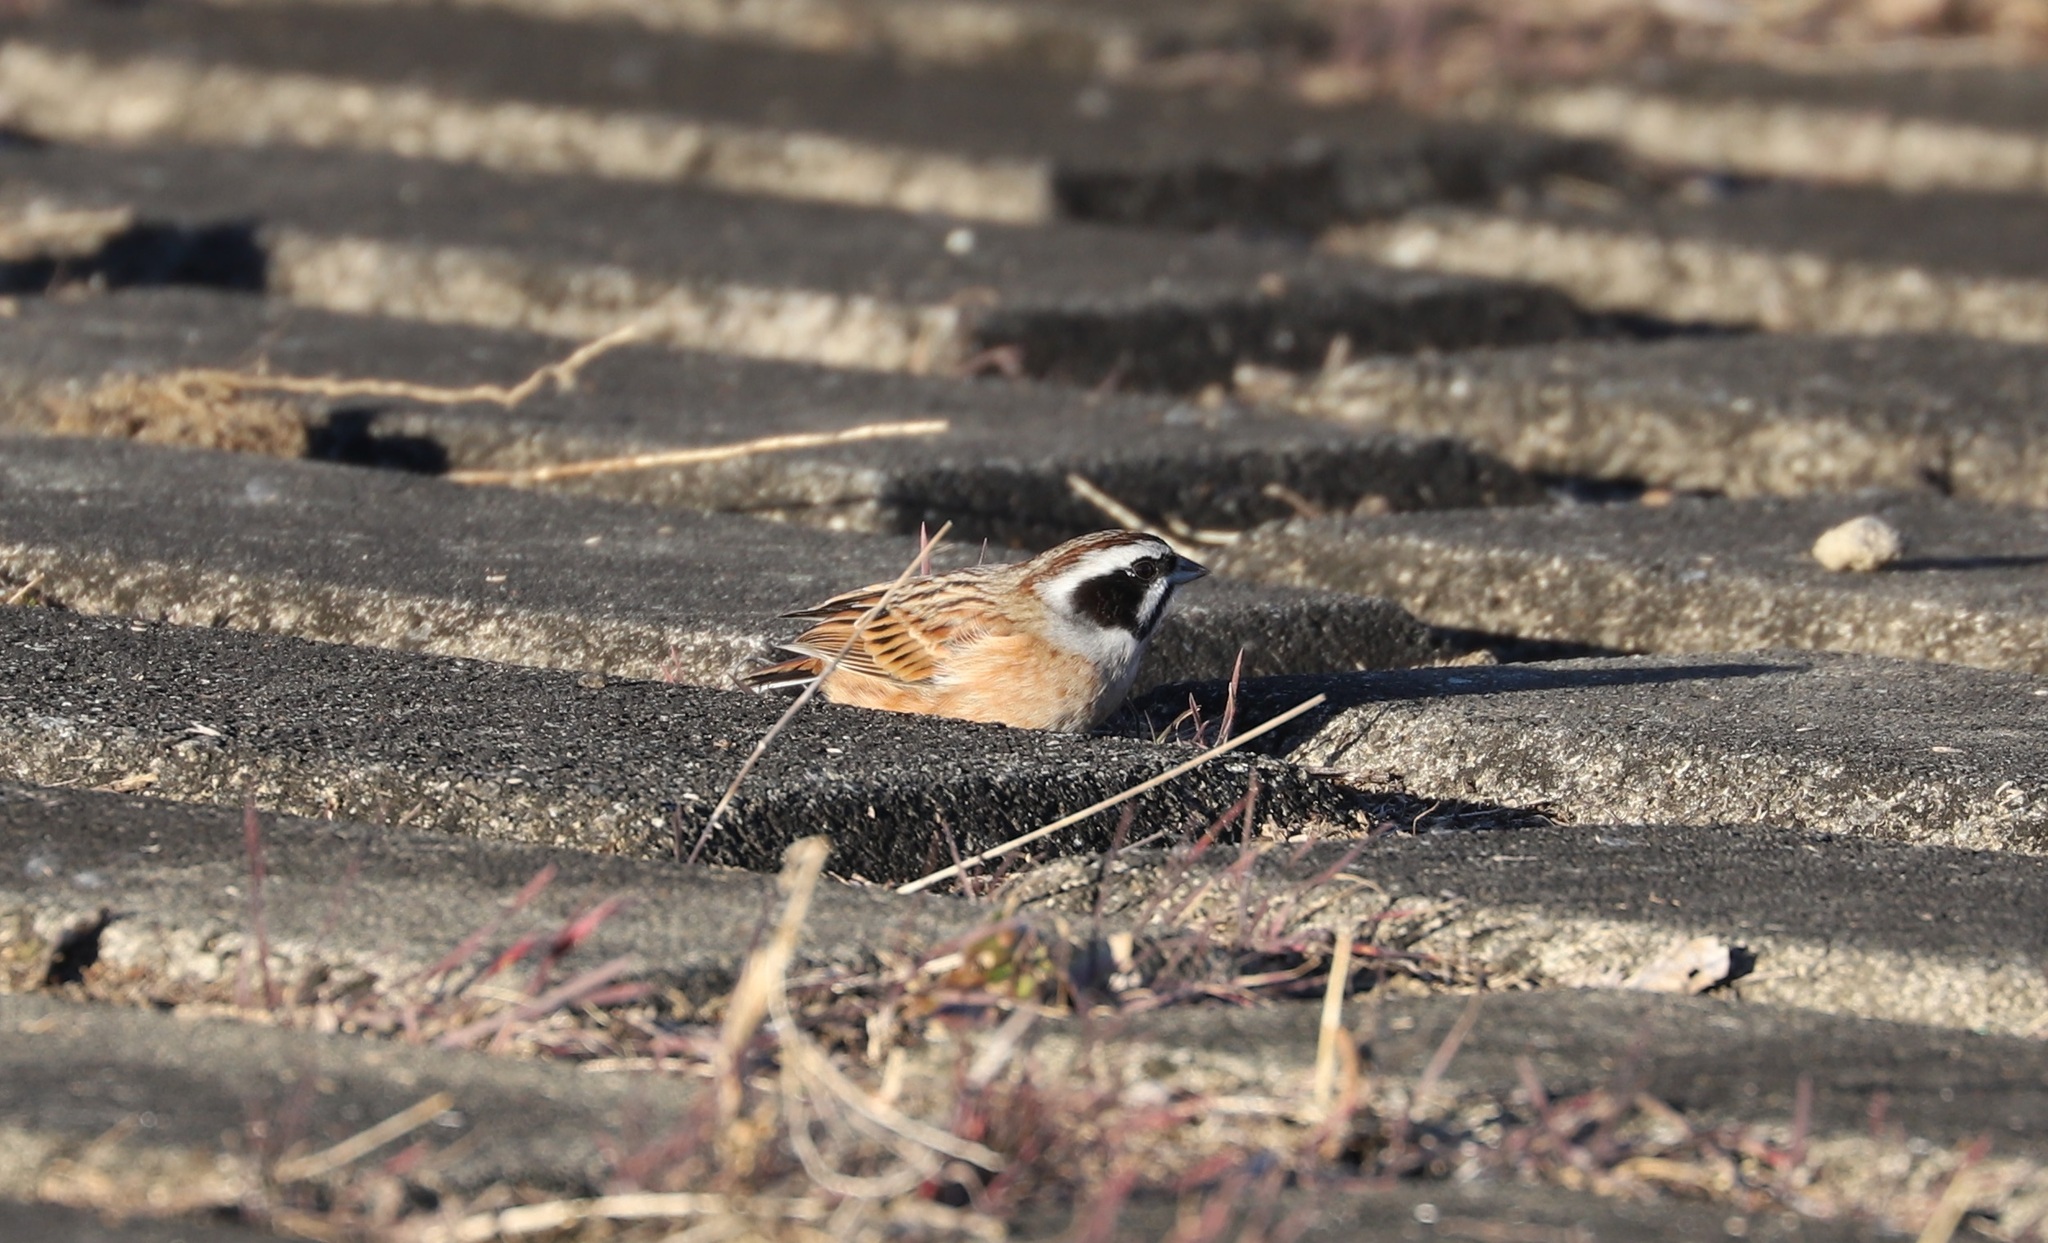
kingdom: Animalia
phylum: Chordata
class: Aves
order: Passeriformes
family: Emberizidae
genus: Emberiza
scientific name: Emberiza cioides
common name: Meadow bunting
